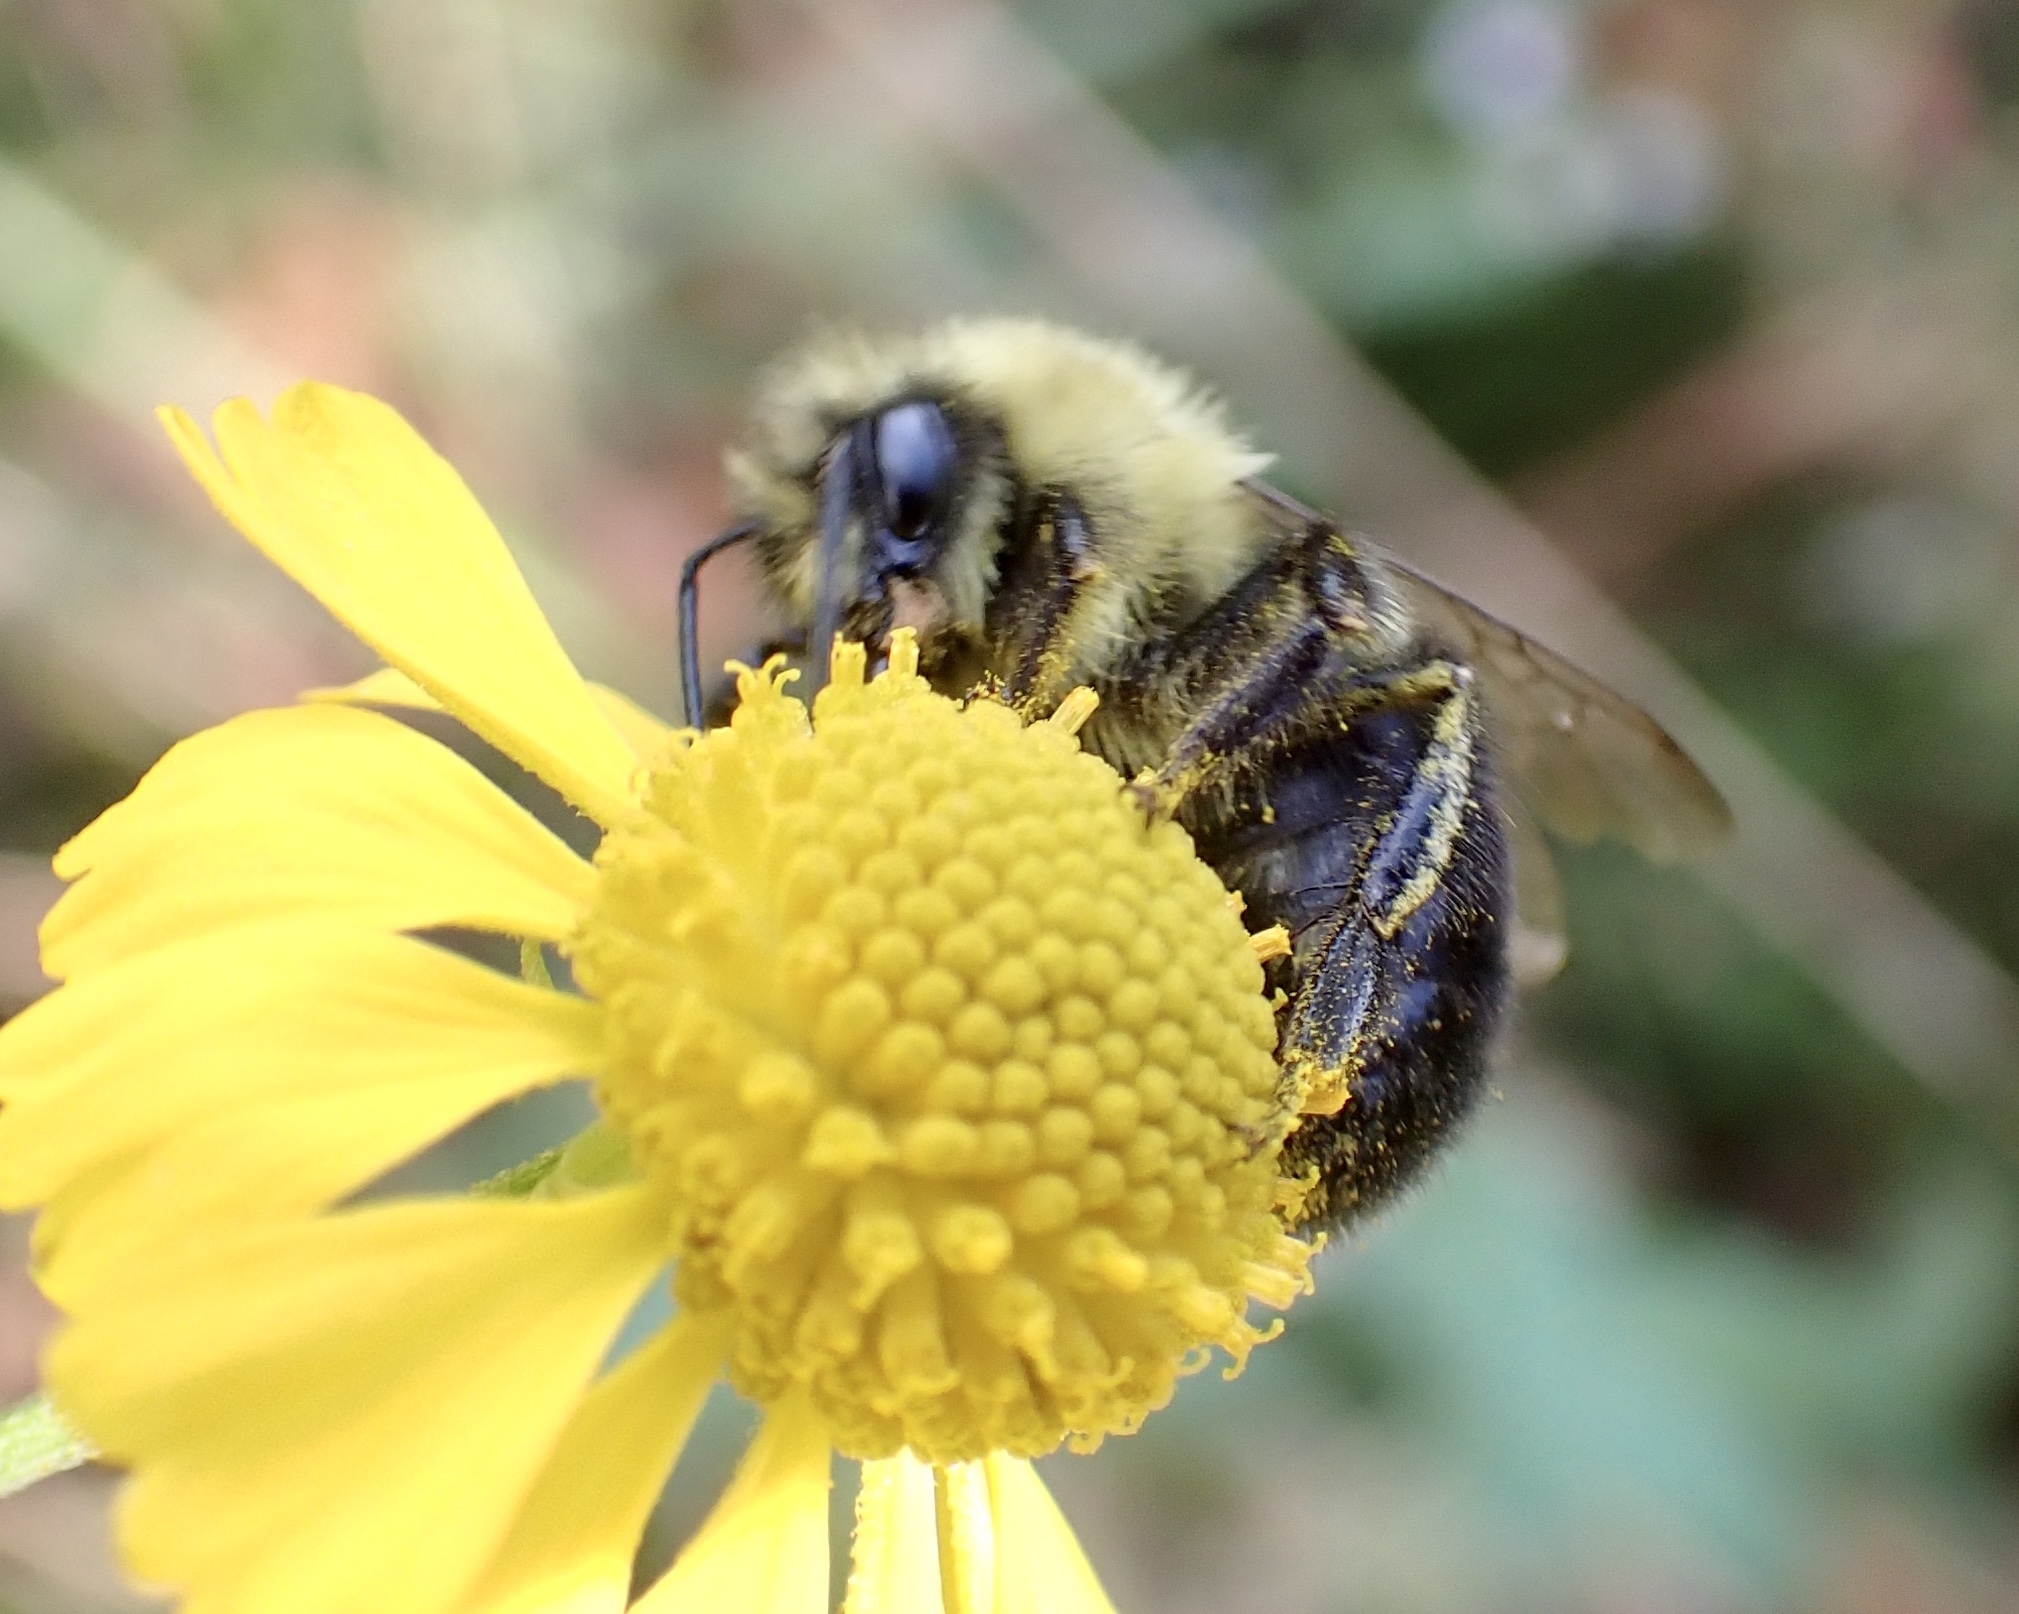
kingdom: Animalia
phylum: Arthropoda
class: Insecta
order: Hymenoptera
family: Apidae
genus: Bombus
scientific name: Bombus impatiens
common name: Common eastern bumble bee
